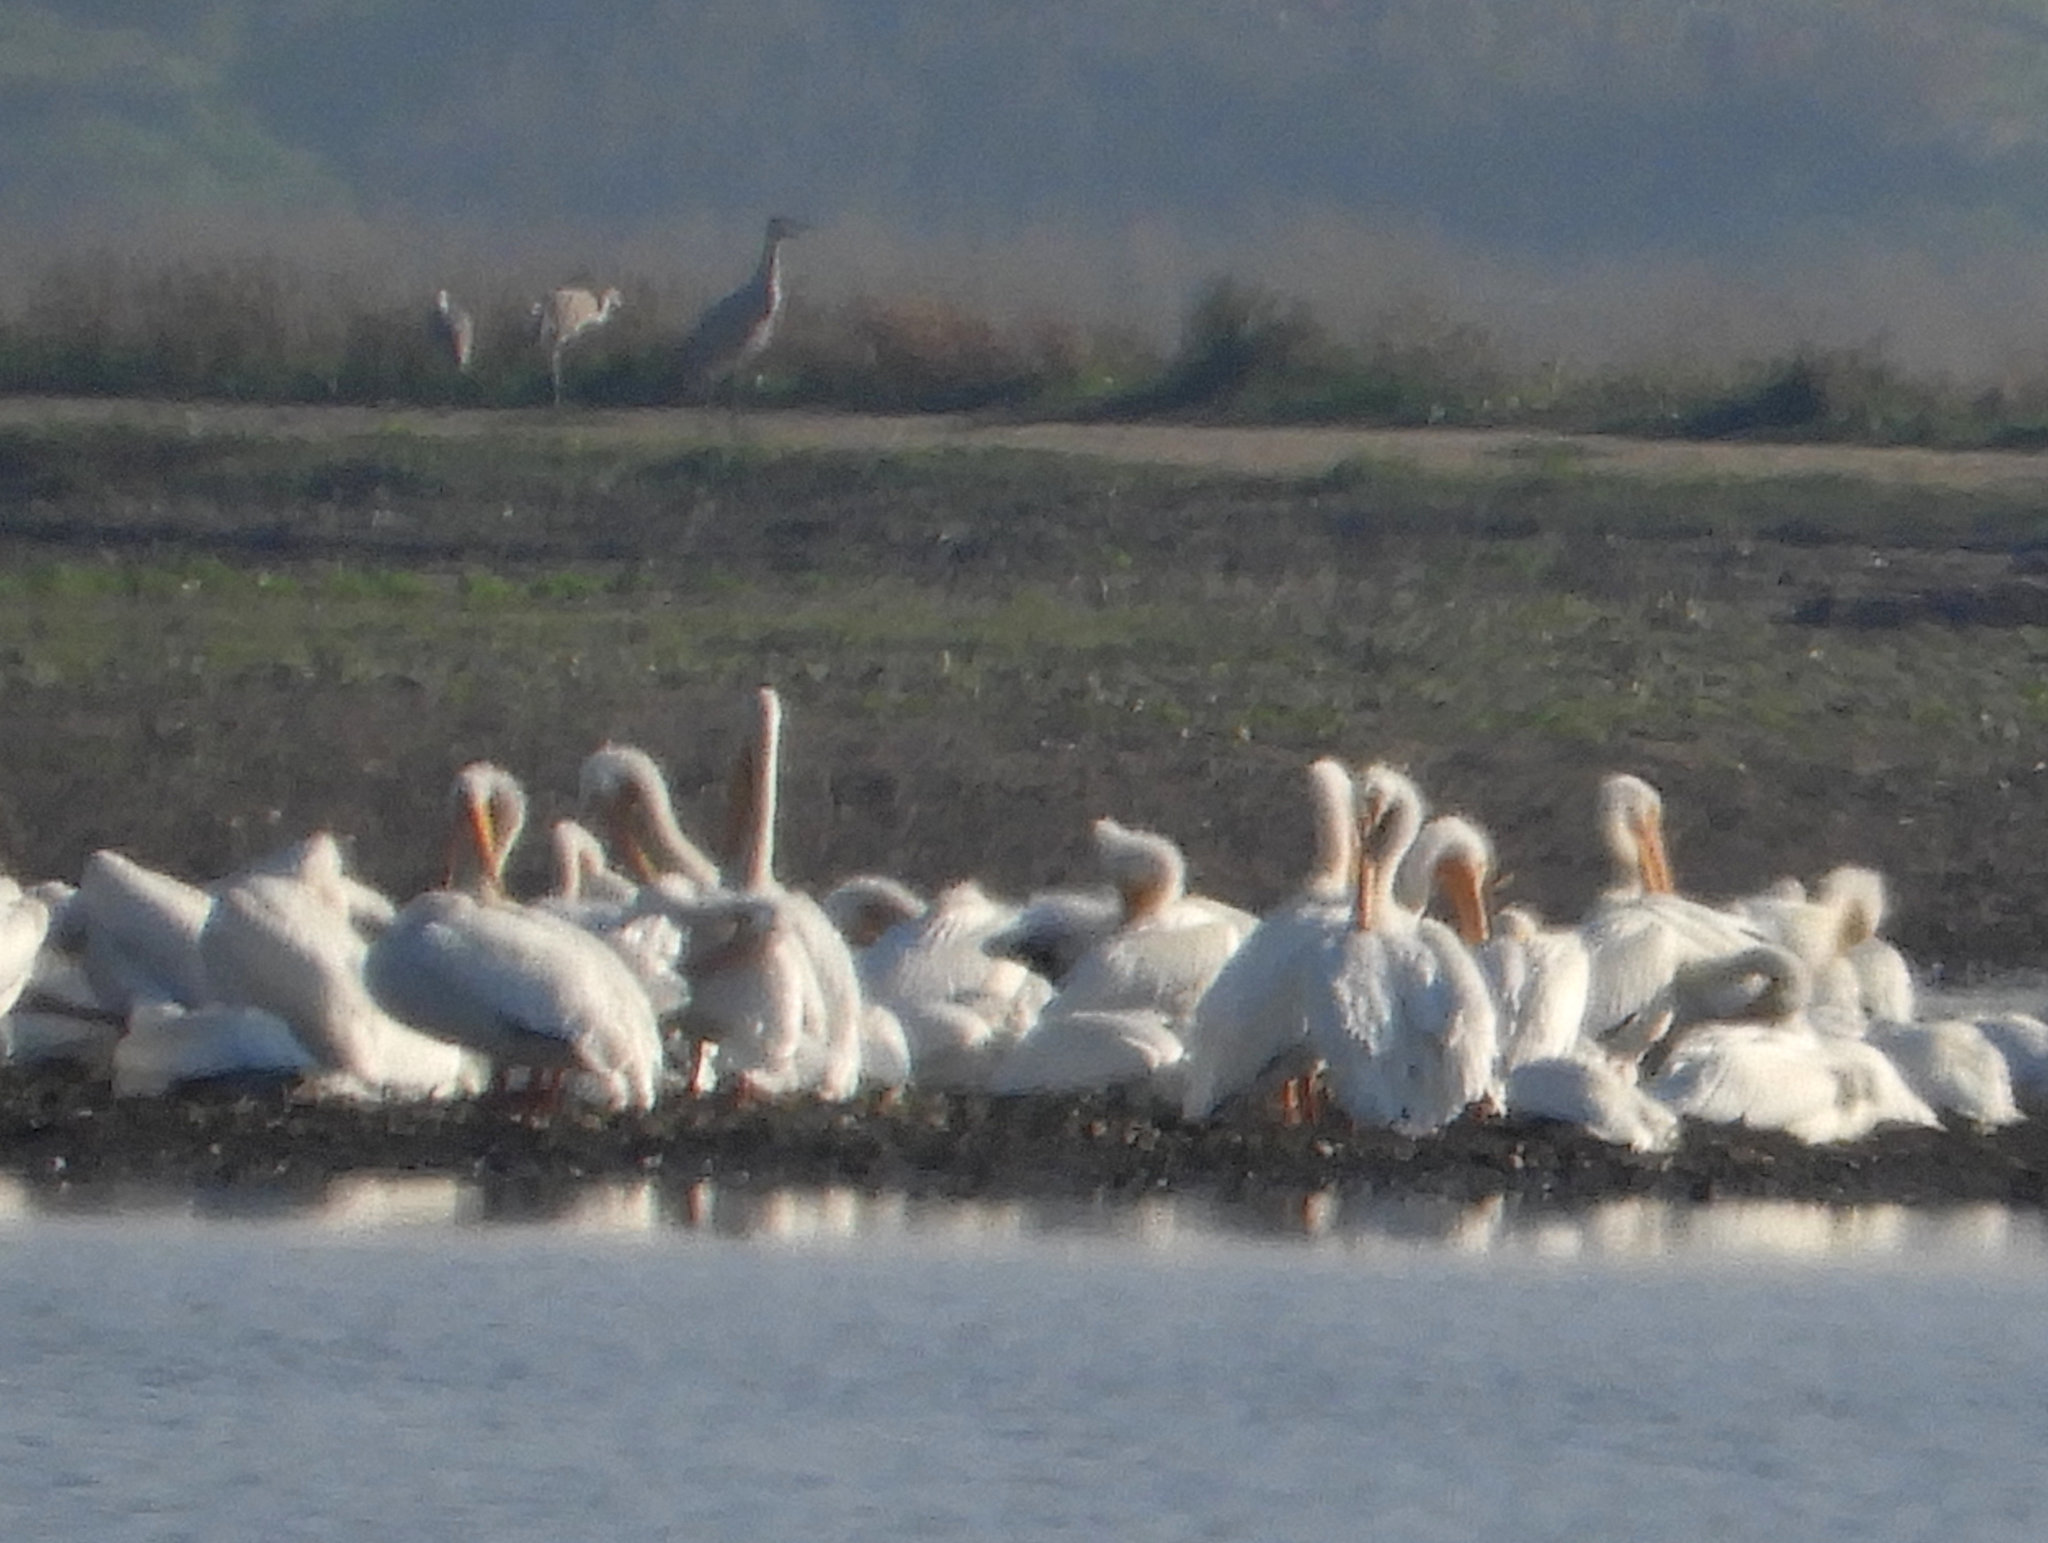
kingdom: Animalia
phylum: Chordata
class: Aves
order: Pelecaniformes
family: Pelecanidae
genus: Pelecanus
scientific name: Pelecanus erythrorhynchos
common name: American white pelican
